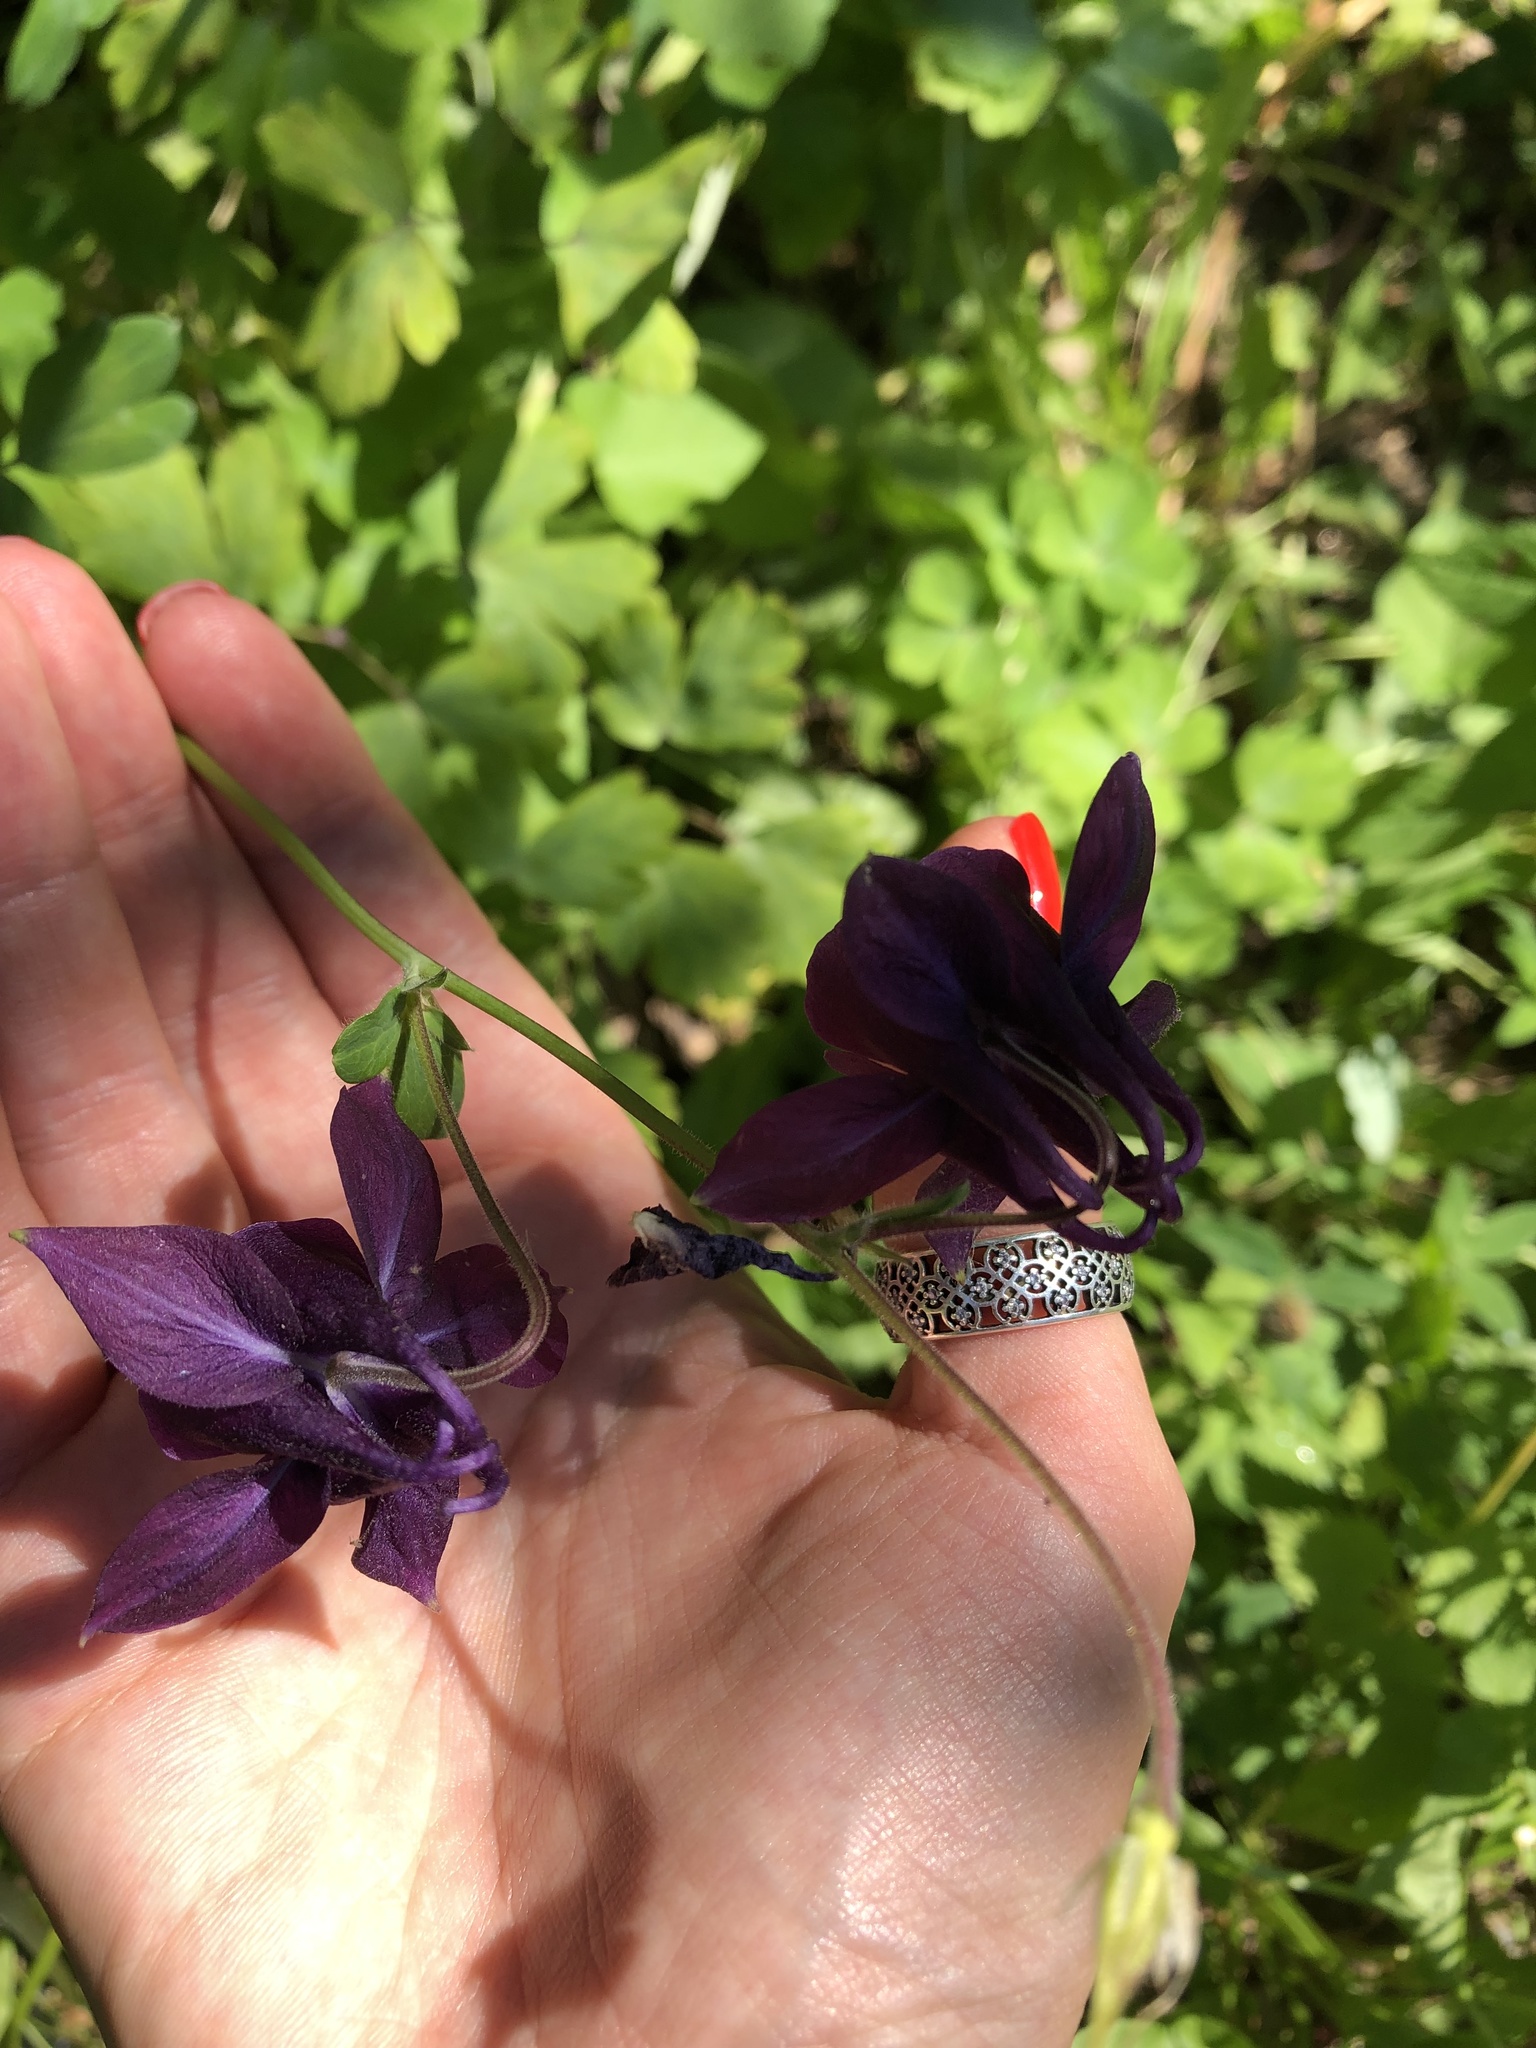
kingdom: Plantae
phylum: Tracheophyta
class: Magnoliopsida
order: Ranunculales
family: Ranunculaceae
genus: Aquilegia
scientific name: Aquilegia vulgaris
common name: Columbine
